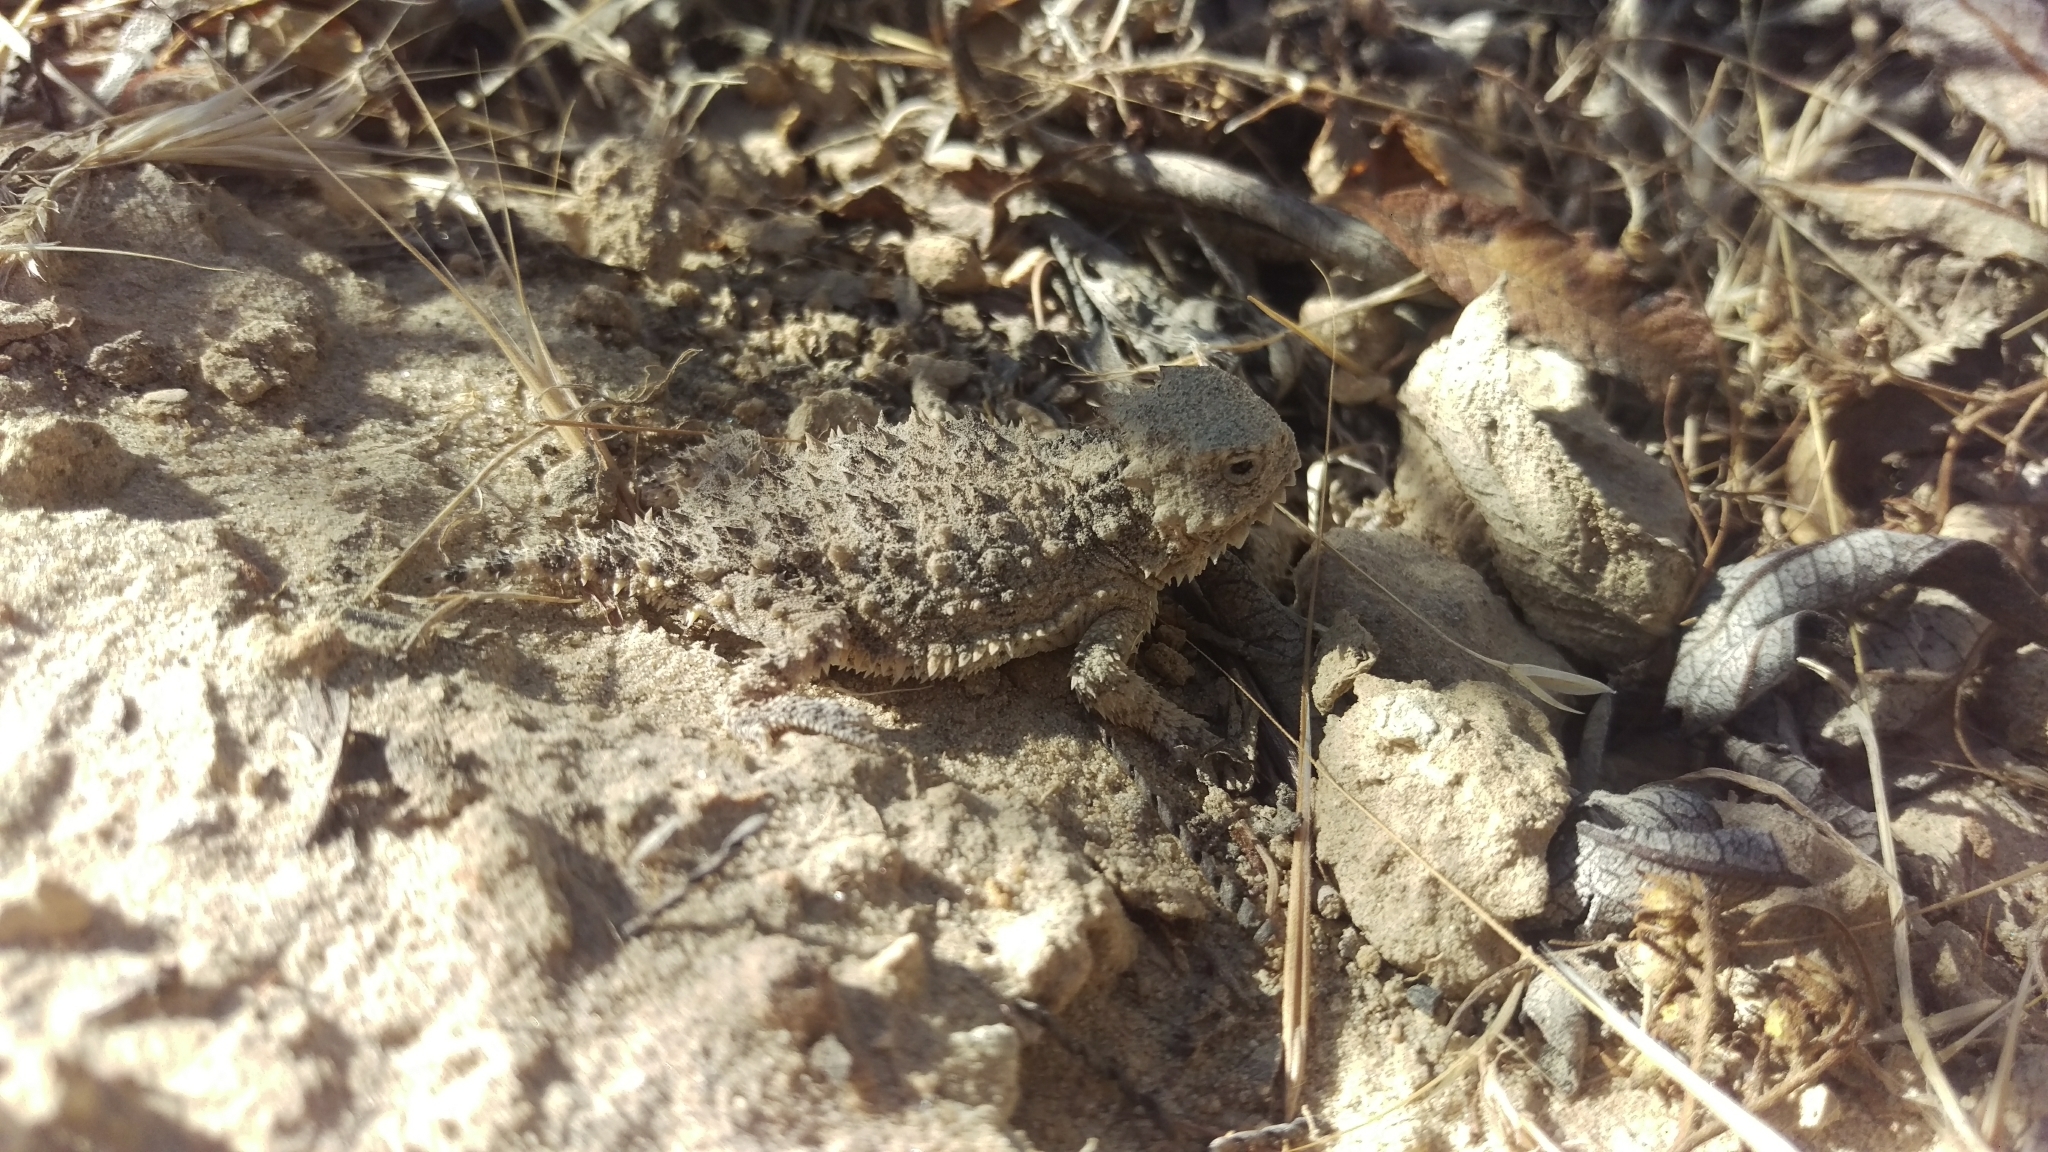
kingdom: Animalia
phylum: Chordata
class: Squamata
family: Phrynosomatidae
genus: Phrynosoma
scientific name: Phrynosoma blainvillii
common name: San diego horned lizard
